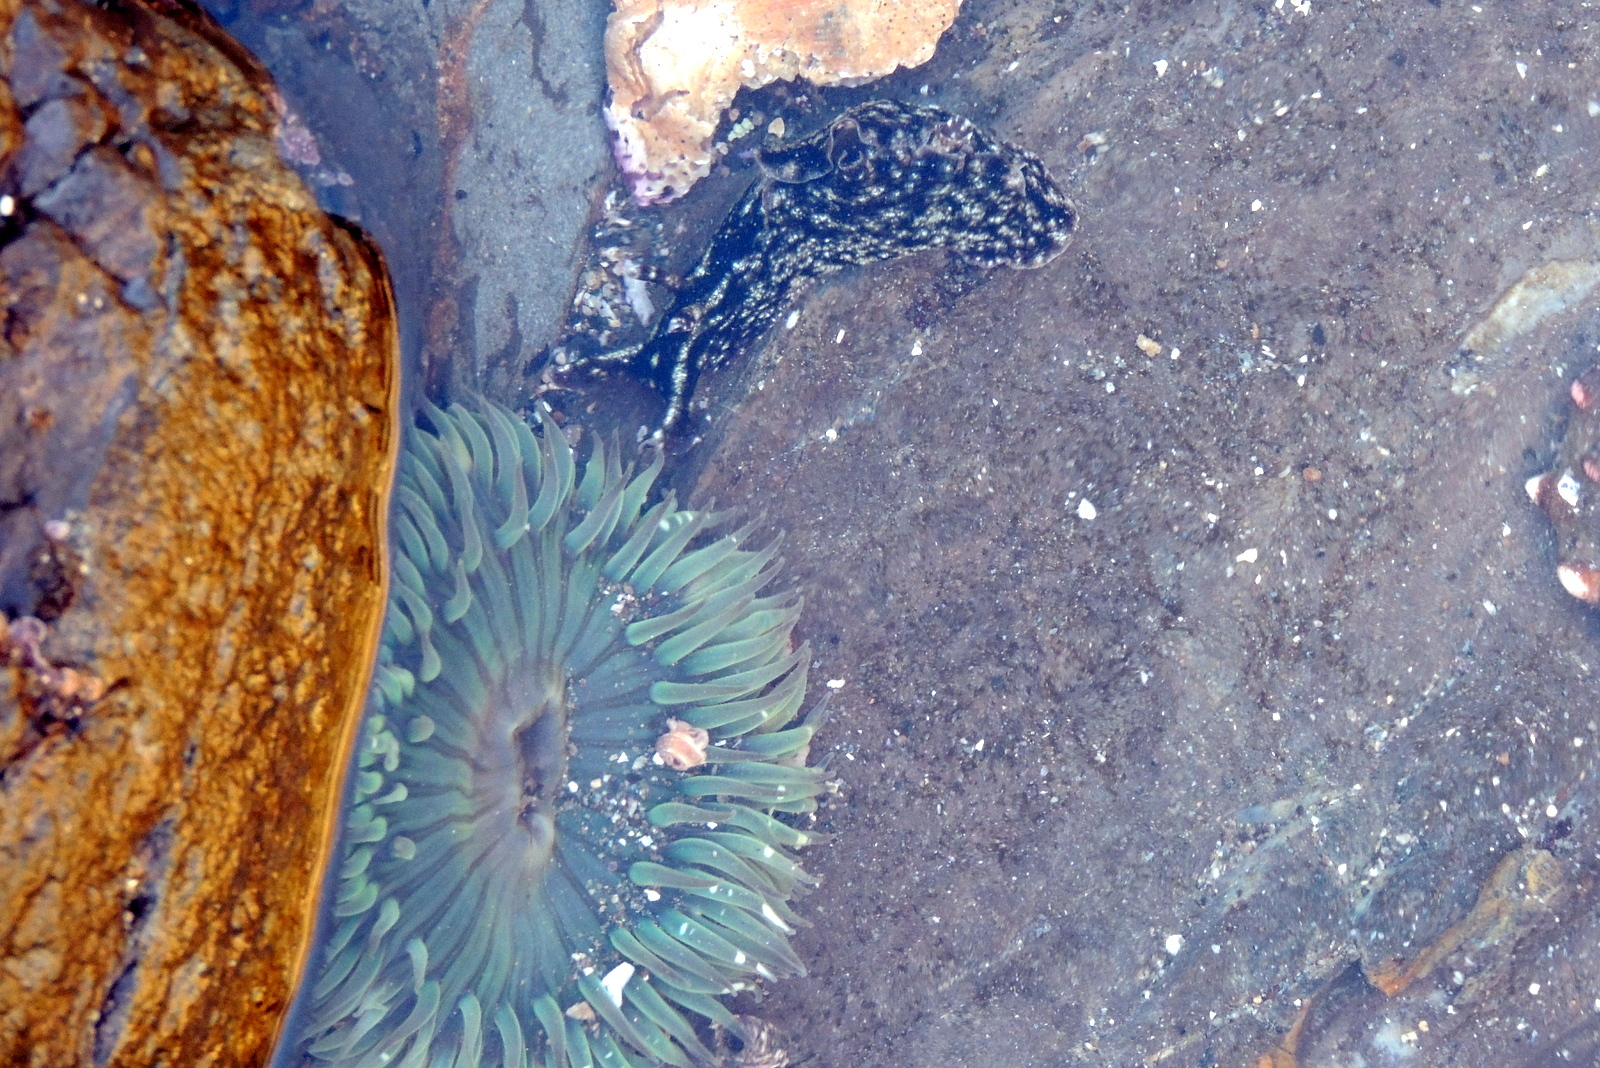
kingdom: Animalia
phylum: Cnidaria
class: Anthozoa
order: Actiniaria
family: Actiniidae
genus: Anthopleura
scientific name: Anthopleura sola
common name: Sun anemone
